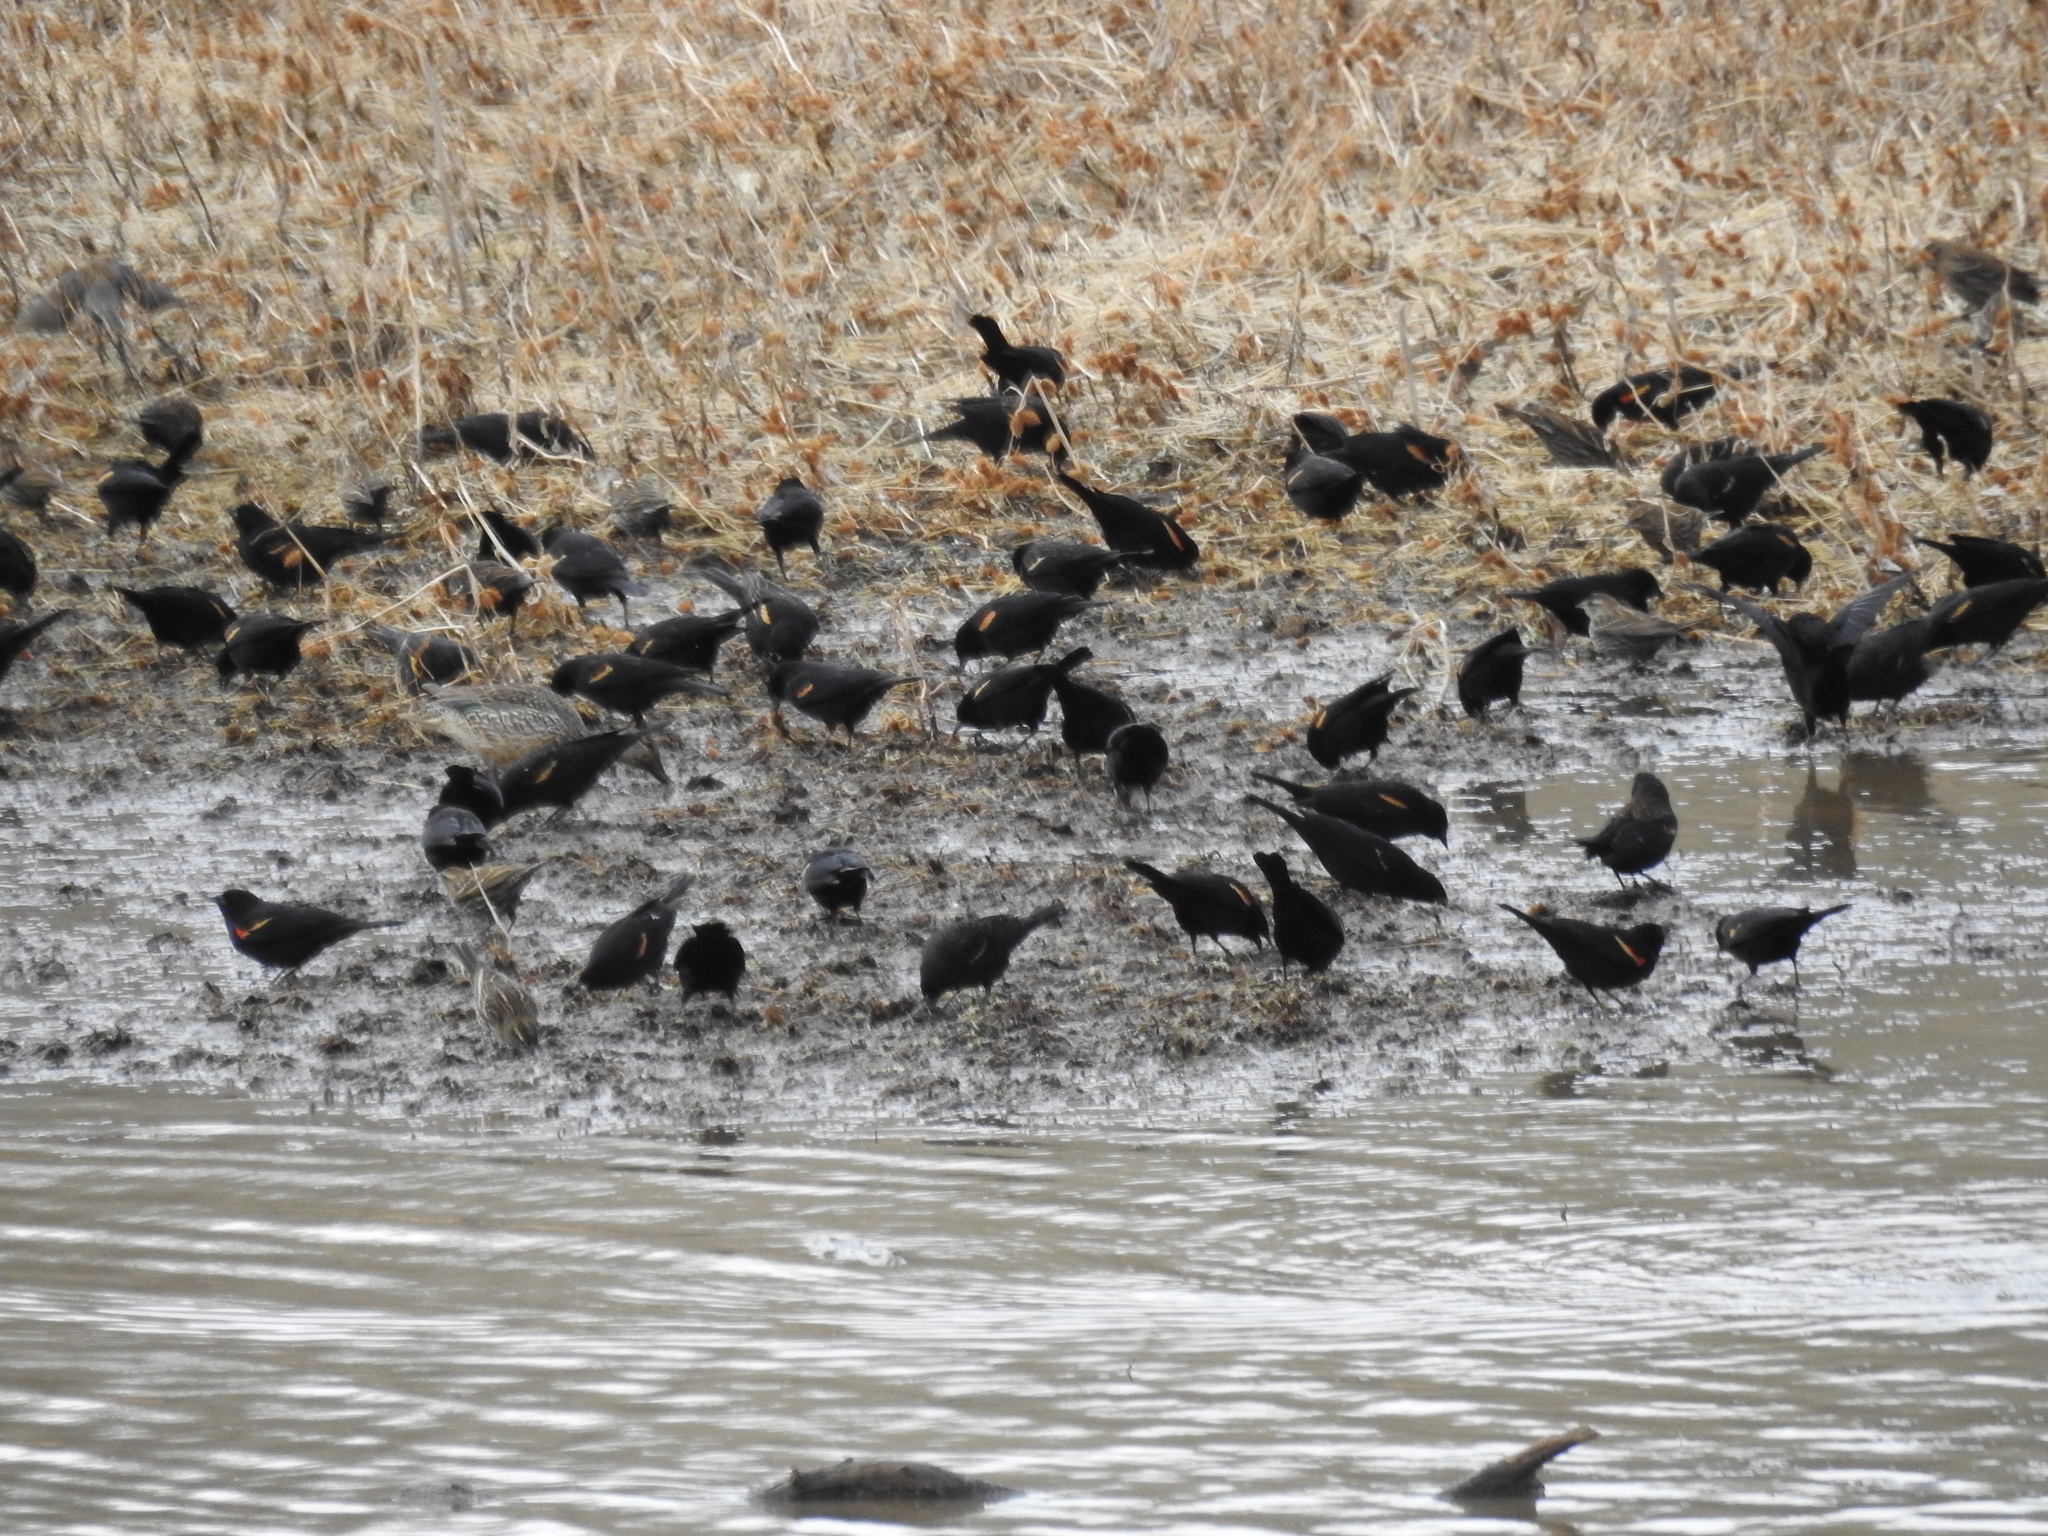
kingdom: Animalia
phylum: Chordata
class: Aves
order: Passeriformes
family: Icteridae
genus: Agelaius
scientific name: Agelaius phoeniceus
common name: Red-winged blackbird
